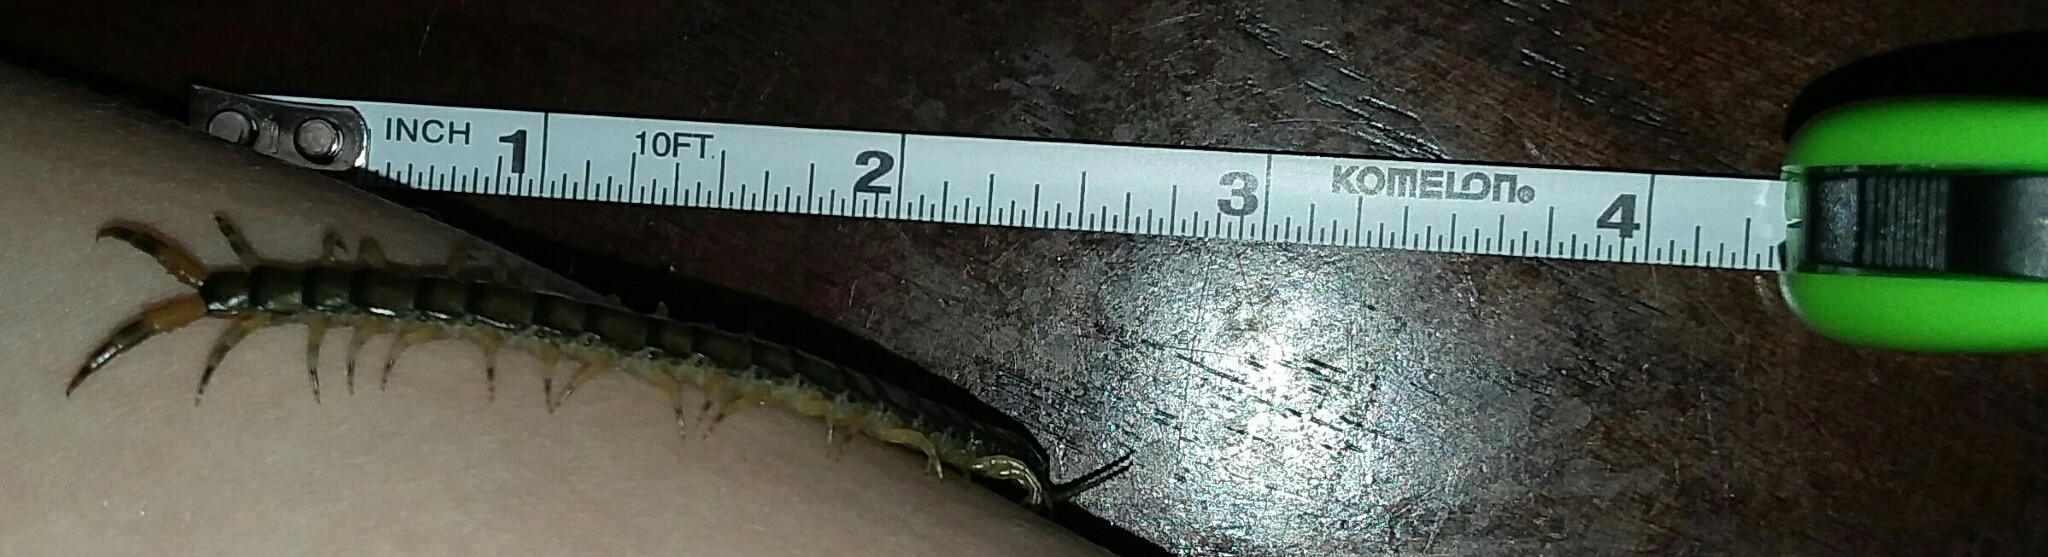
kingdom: Animalia
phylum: Arthropoda
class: Chilopoda
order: Scolopendromorpha
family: Scolopendridae
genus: Hemiscolopendra
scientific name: Hemiscolopendra marginata
